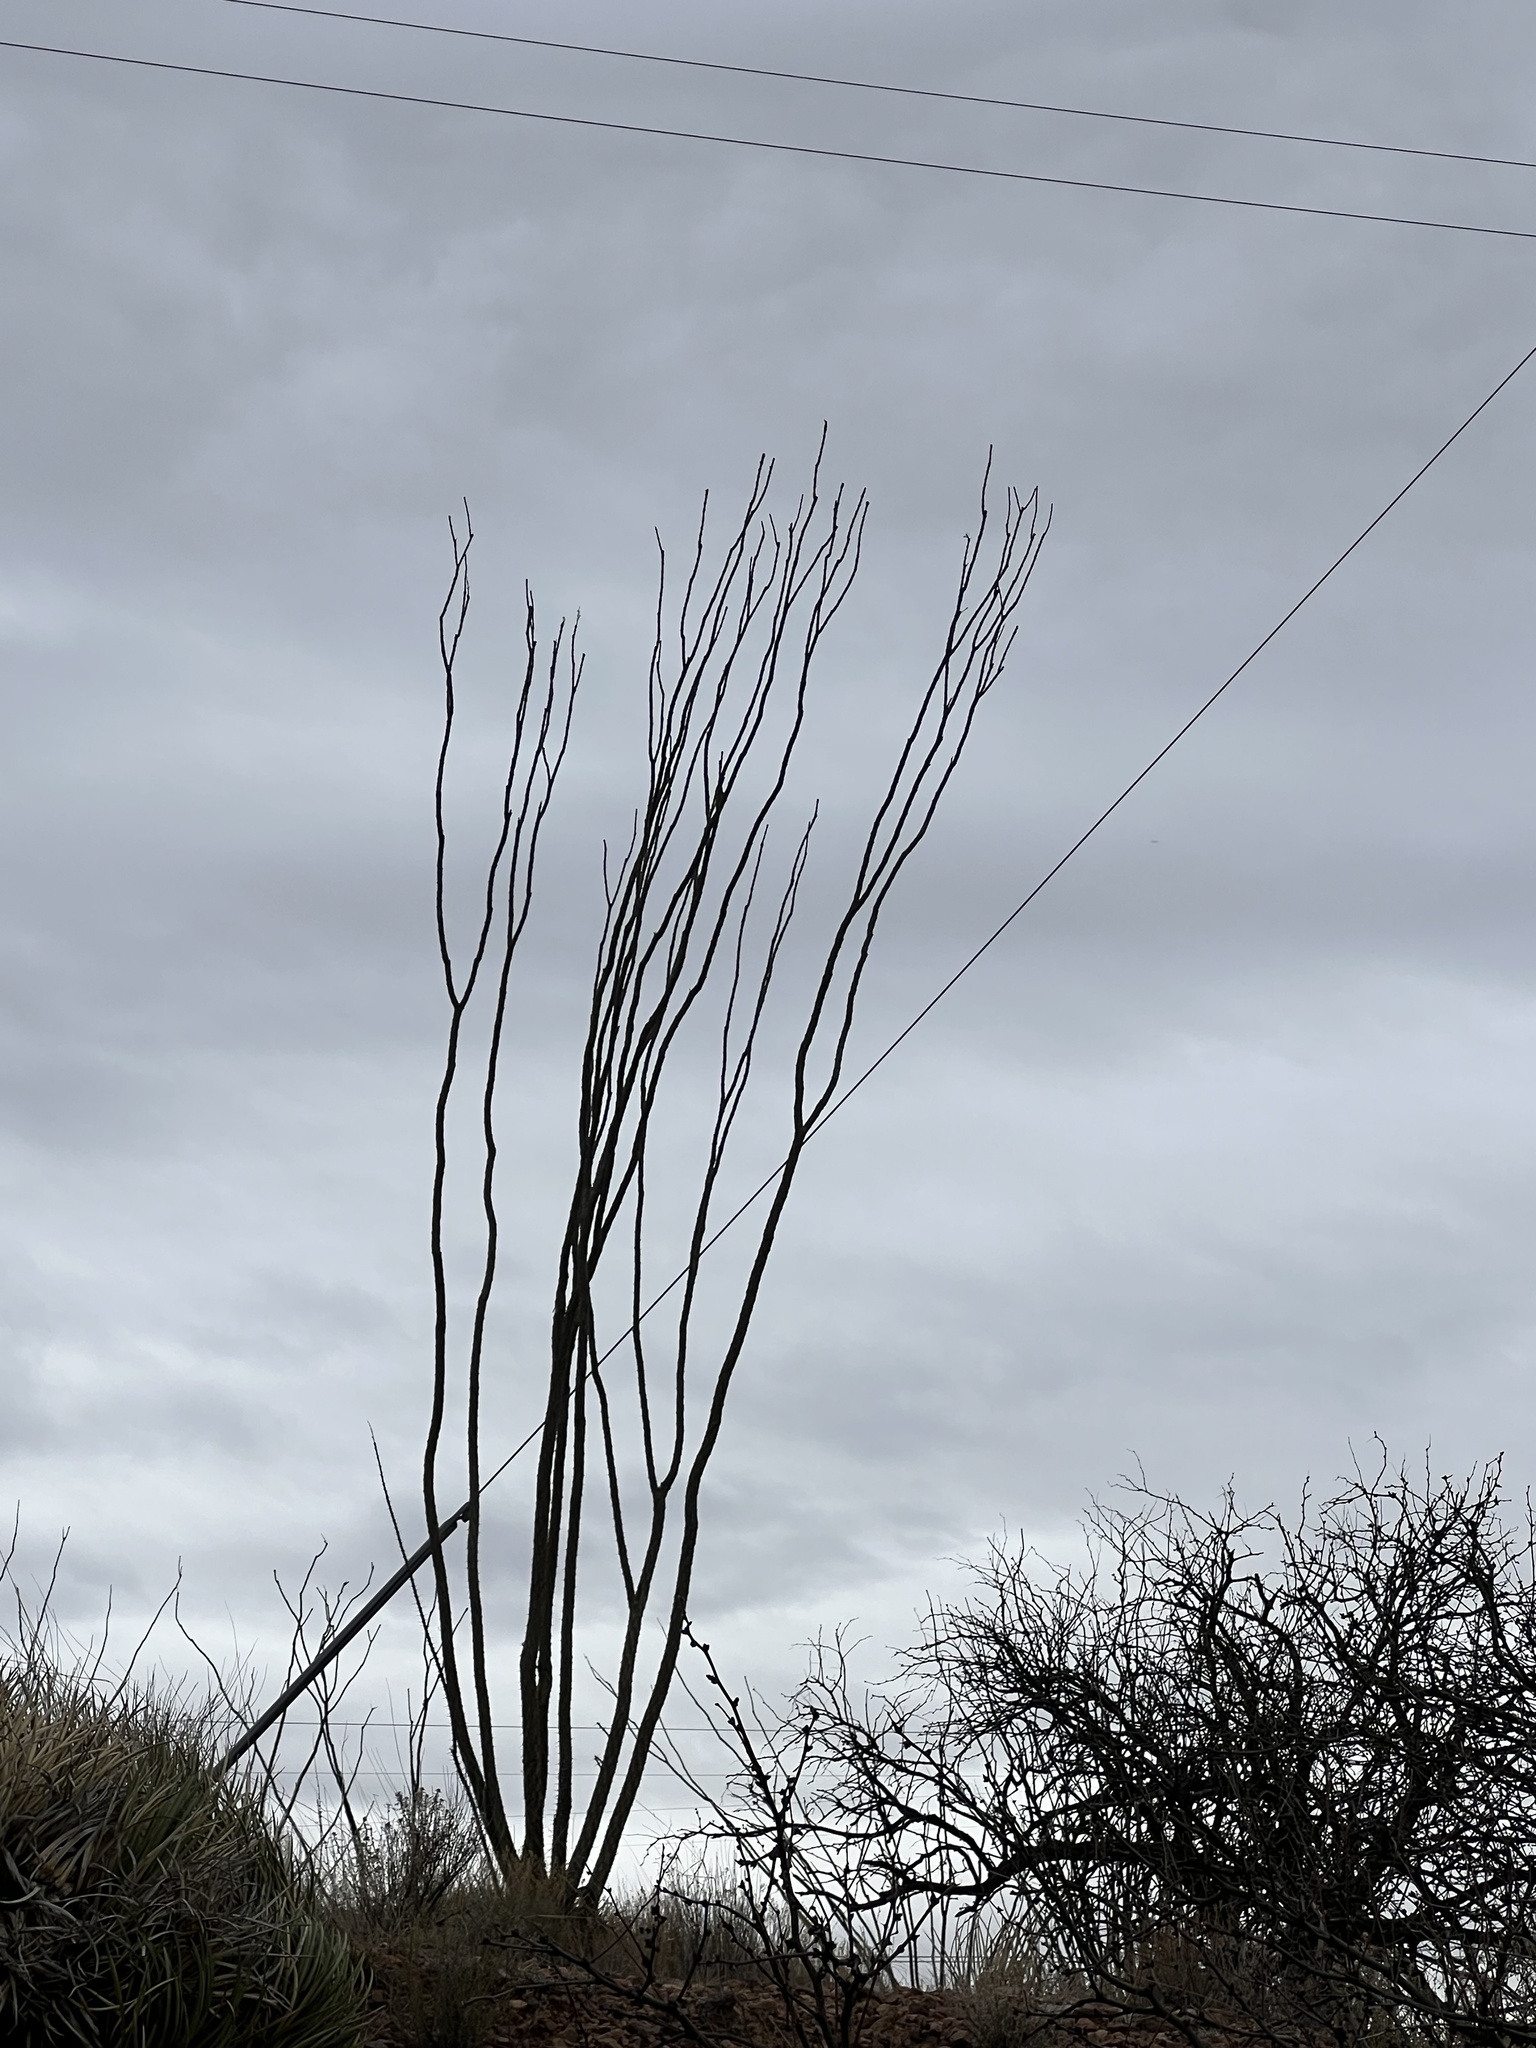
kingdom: Plantae
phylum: Tracheophyta
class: Magnoliopsida
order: Ericales
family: Fouquieriaceae
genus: Fouquieria
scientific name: Fouquieria splendens
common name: Vine-cactus
